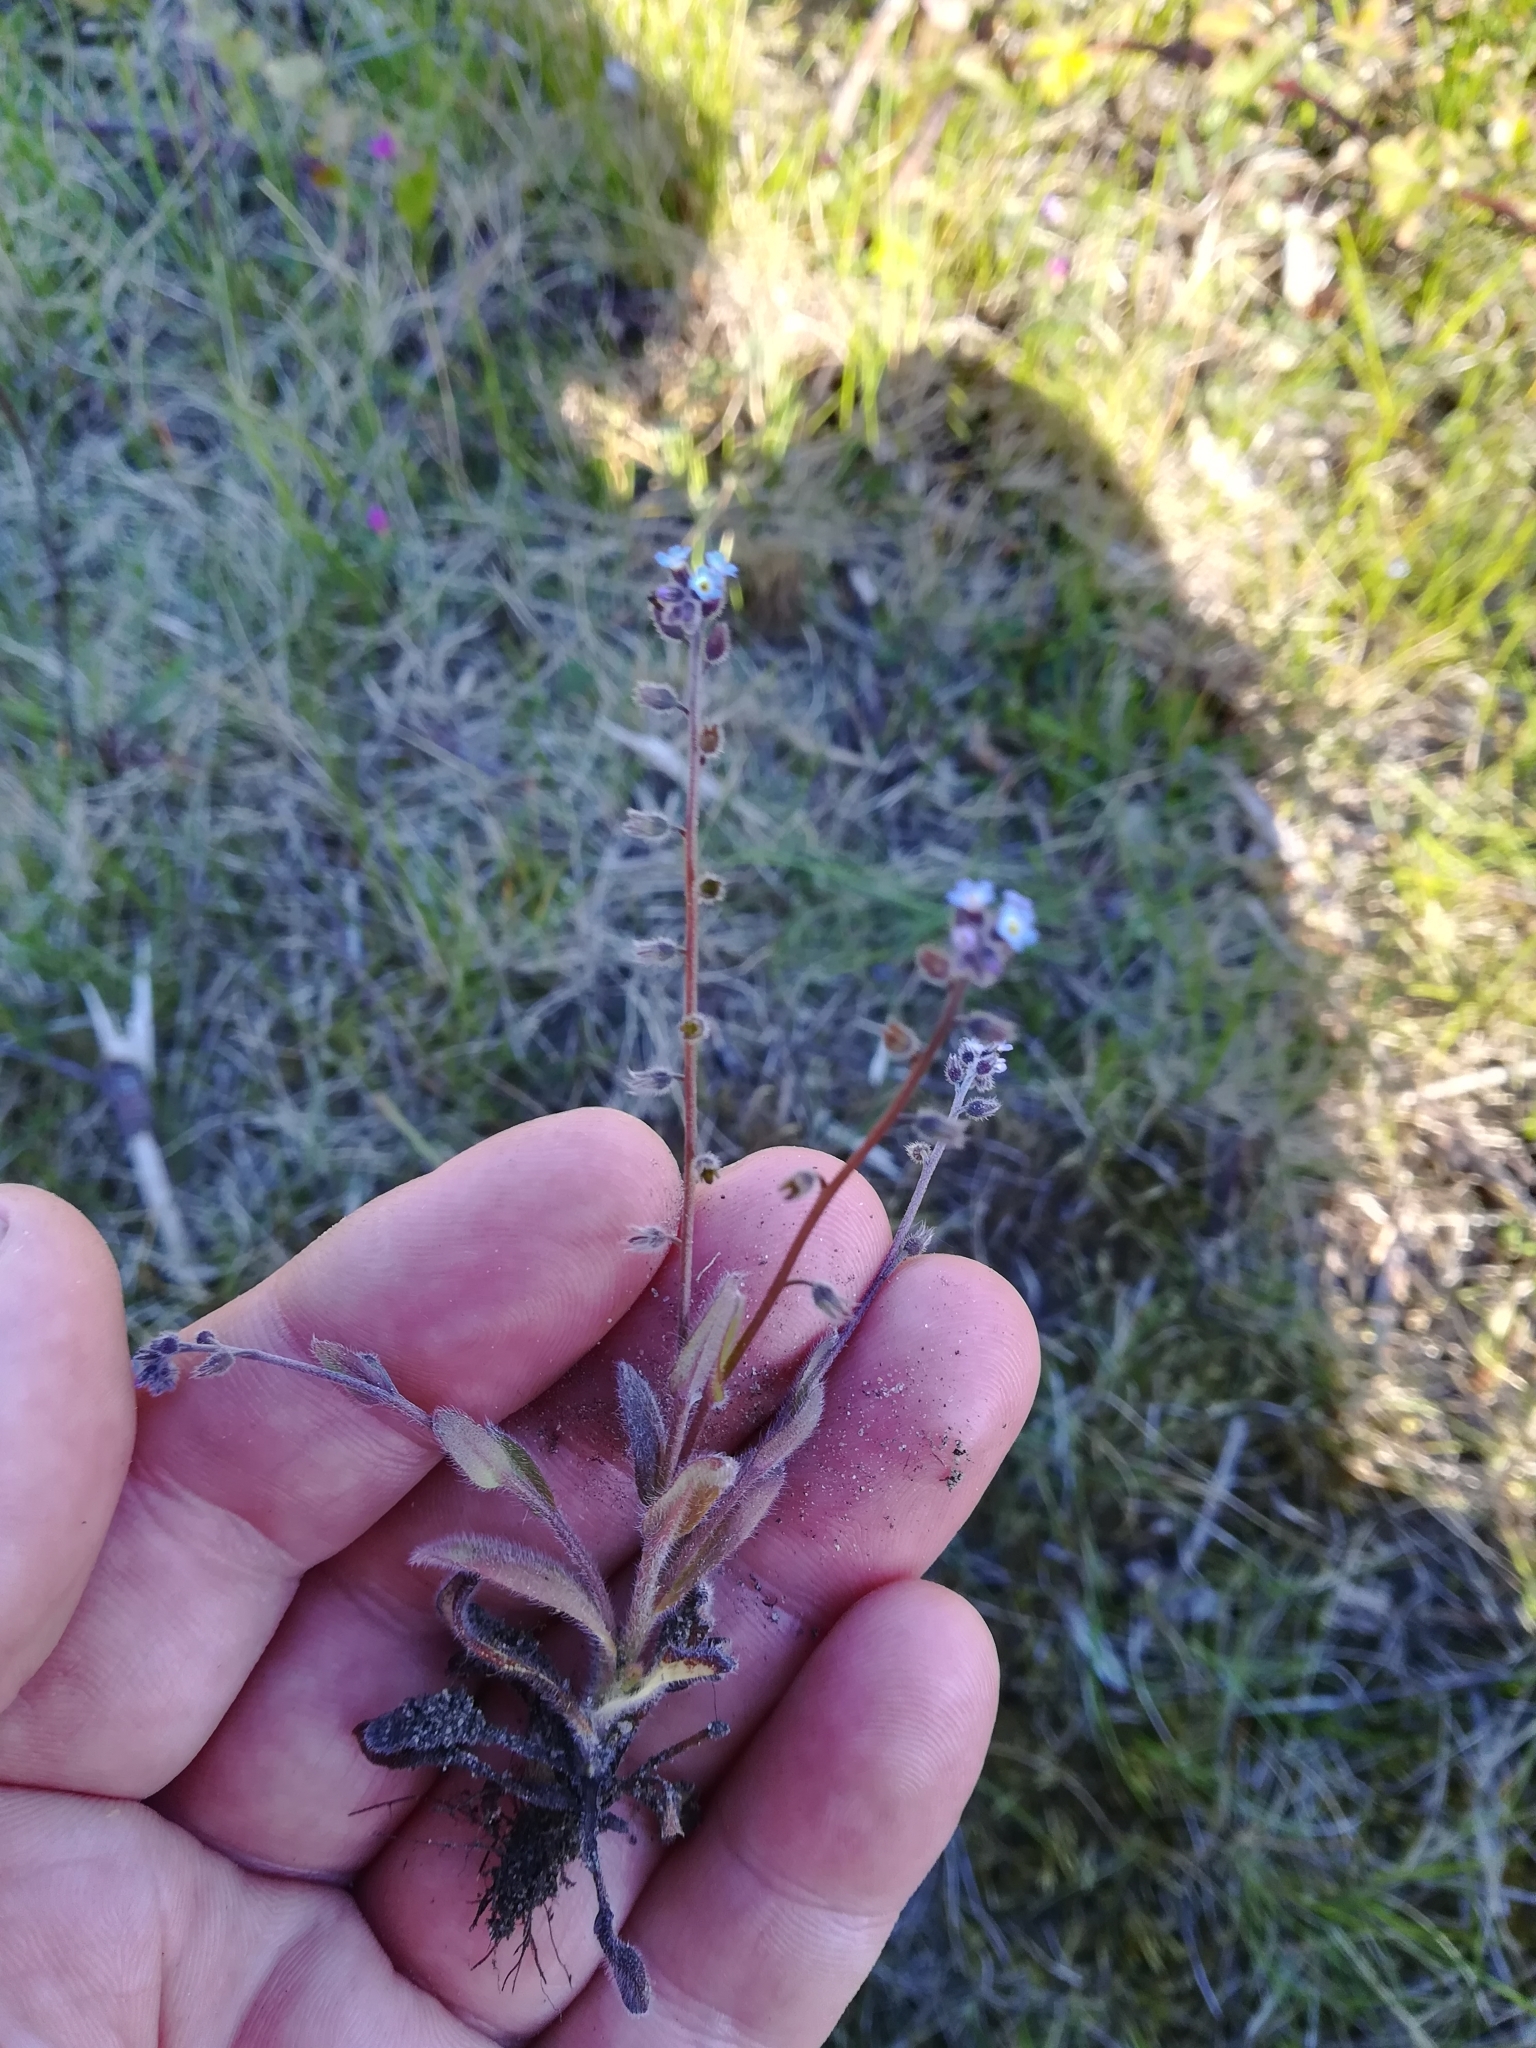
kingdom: Plantae
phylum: Tracheophyta
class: Magnoliopsida
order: Boraginales
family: Boraginaceae
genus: Myosotis
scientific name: Myosotis discolor
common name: Changing forget-me-not
